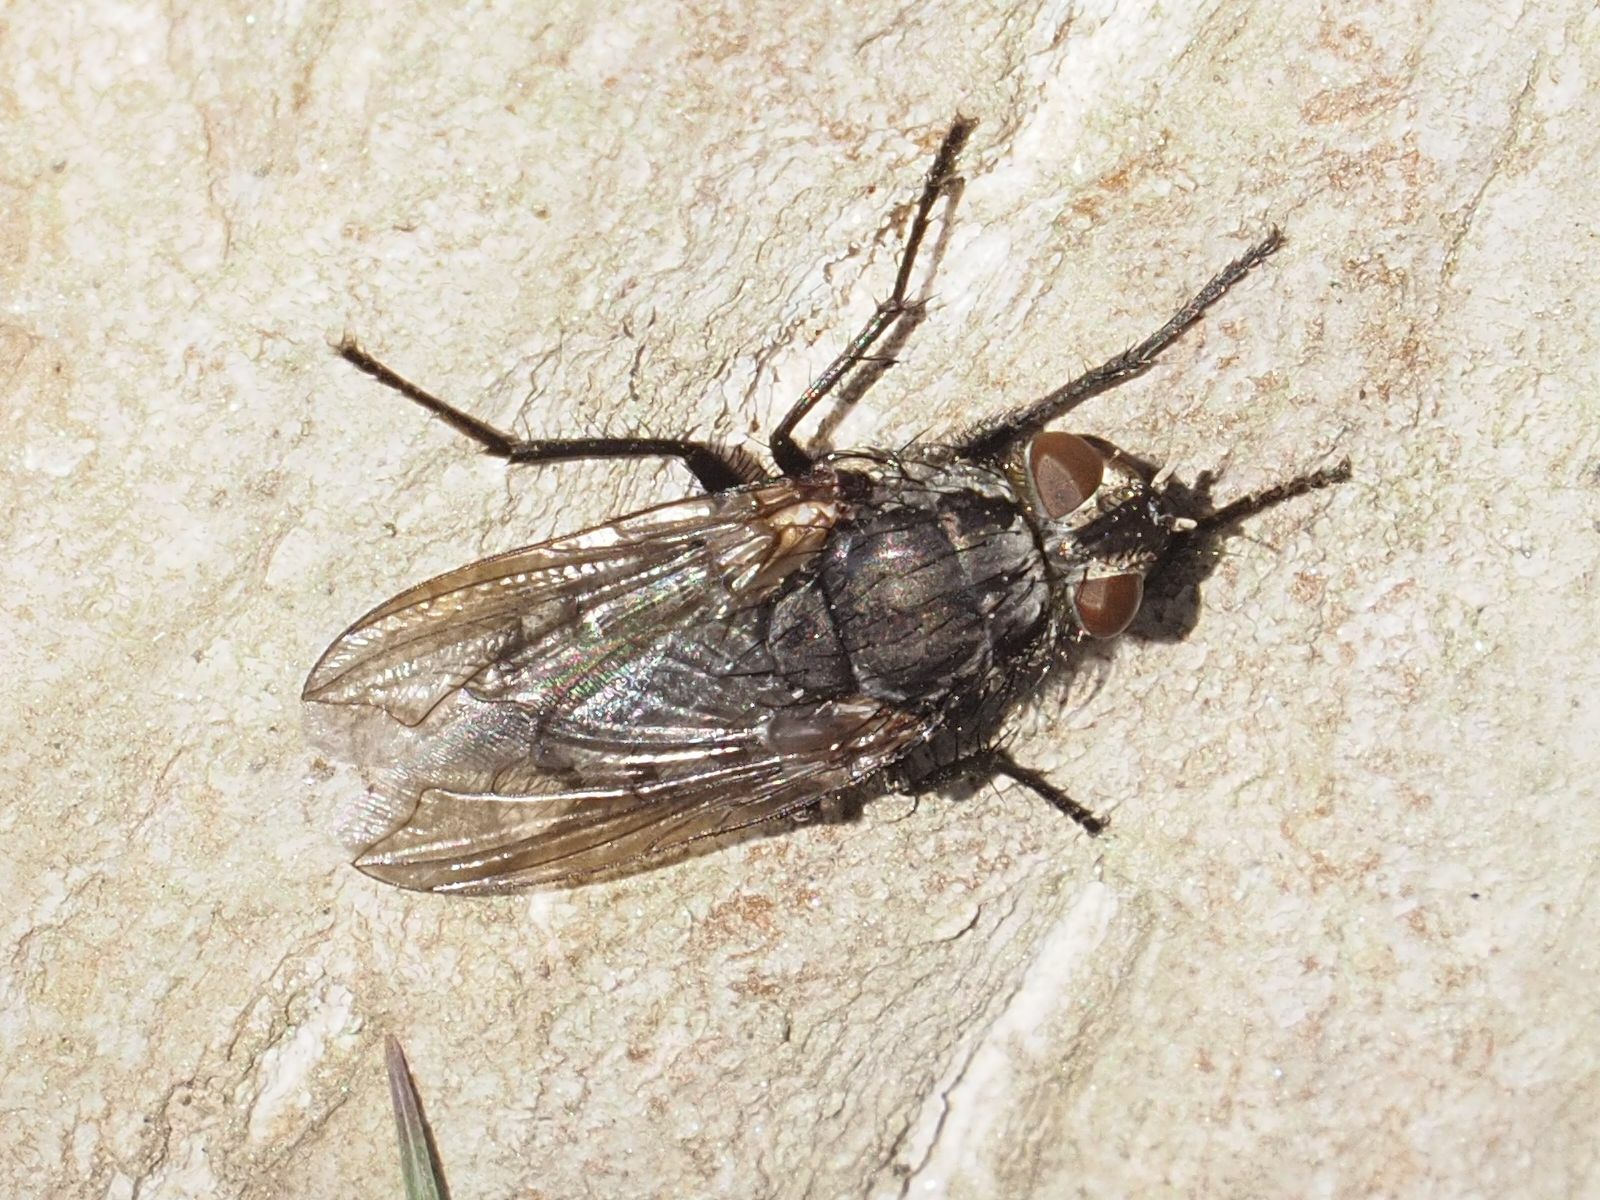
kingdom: Animalia
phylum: Arthropoda
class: Insecta
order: Diptera
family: Polleniidae
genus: Pollenia
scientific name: Pollenia vagabunda
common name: Vagabund cluster fly
